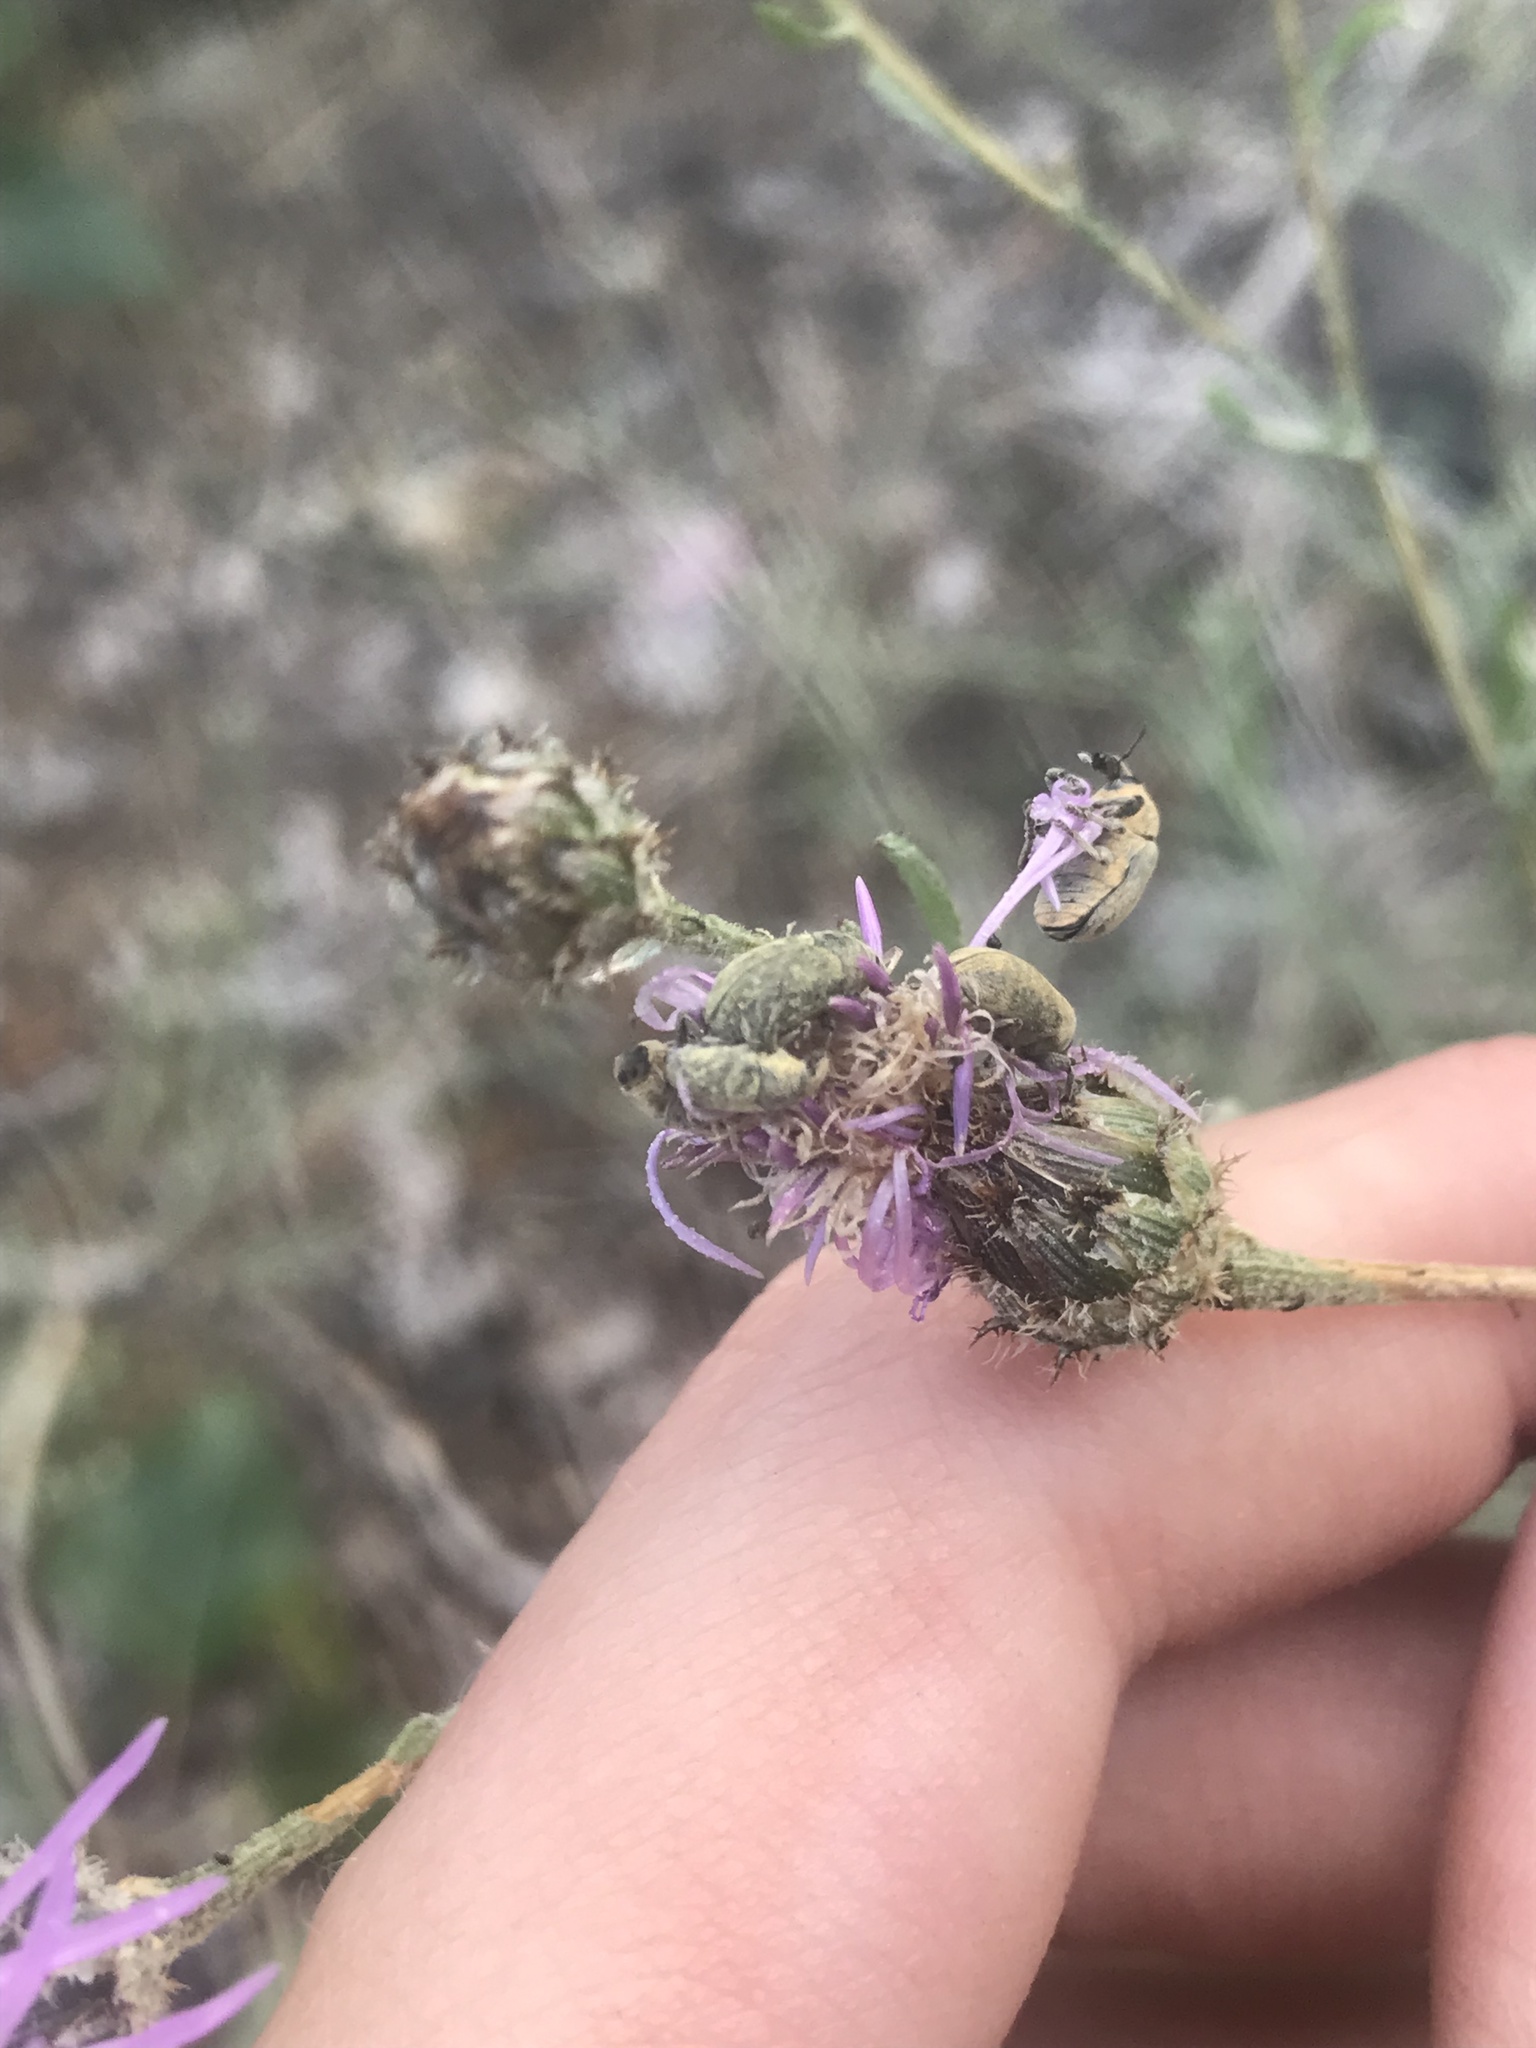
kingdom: Animalia
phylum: Arthropoda
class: Insecta
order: Coleoptera
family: Curculionidae
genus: Larinus
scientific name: Larinus minutus
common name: Weevil
